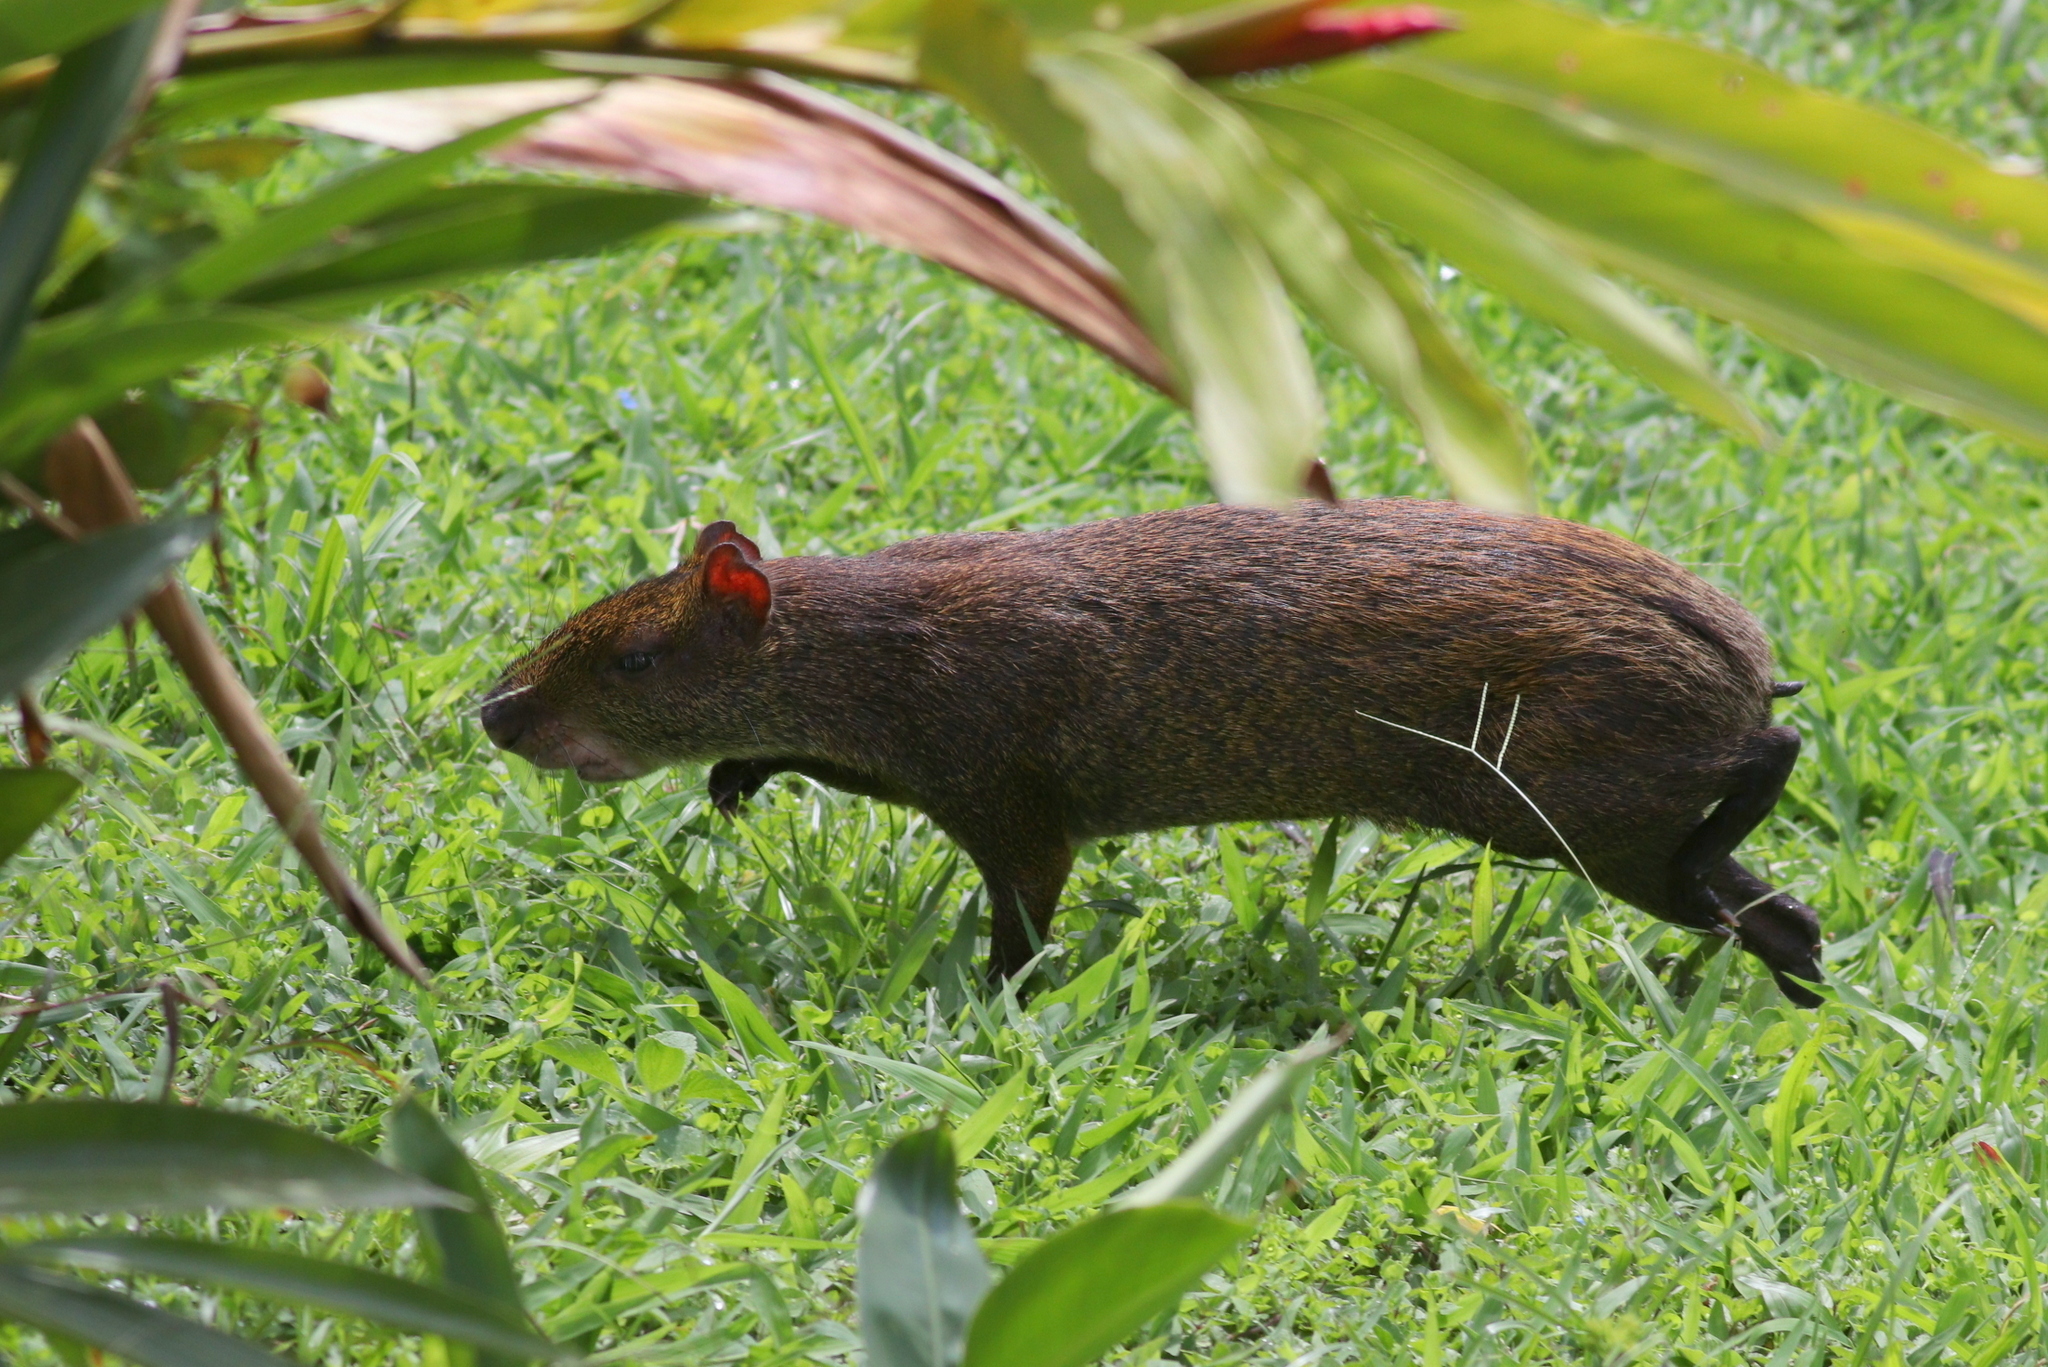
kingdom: Animalia
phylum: Chordata
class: Mammalia
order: Rodentia
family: Dasyproctidae
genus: Dasyprocta
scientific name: Dasyprocta punctata
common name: Central american agouti
